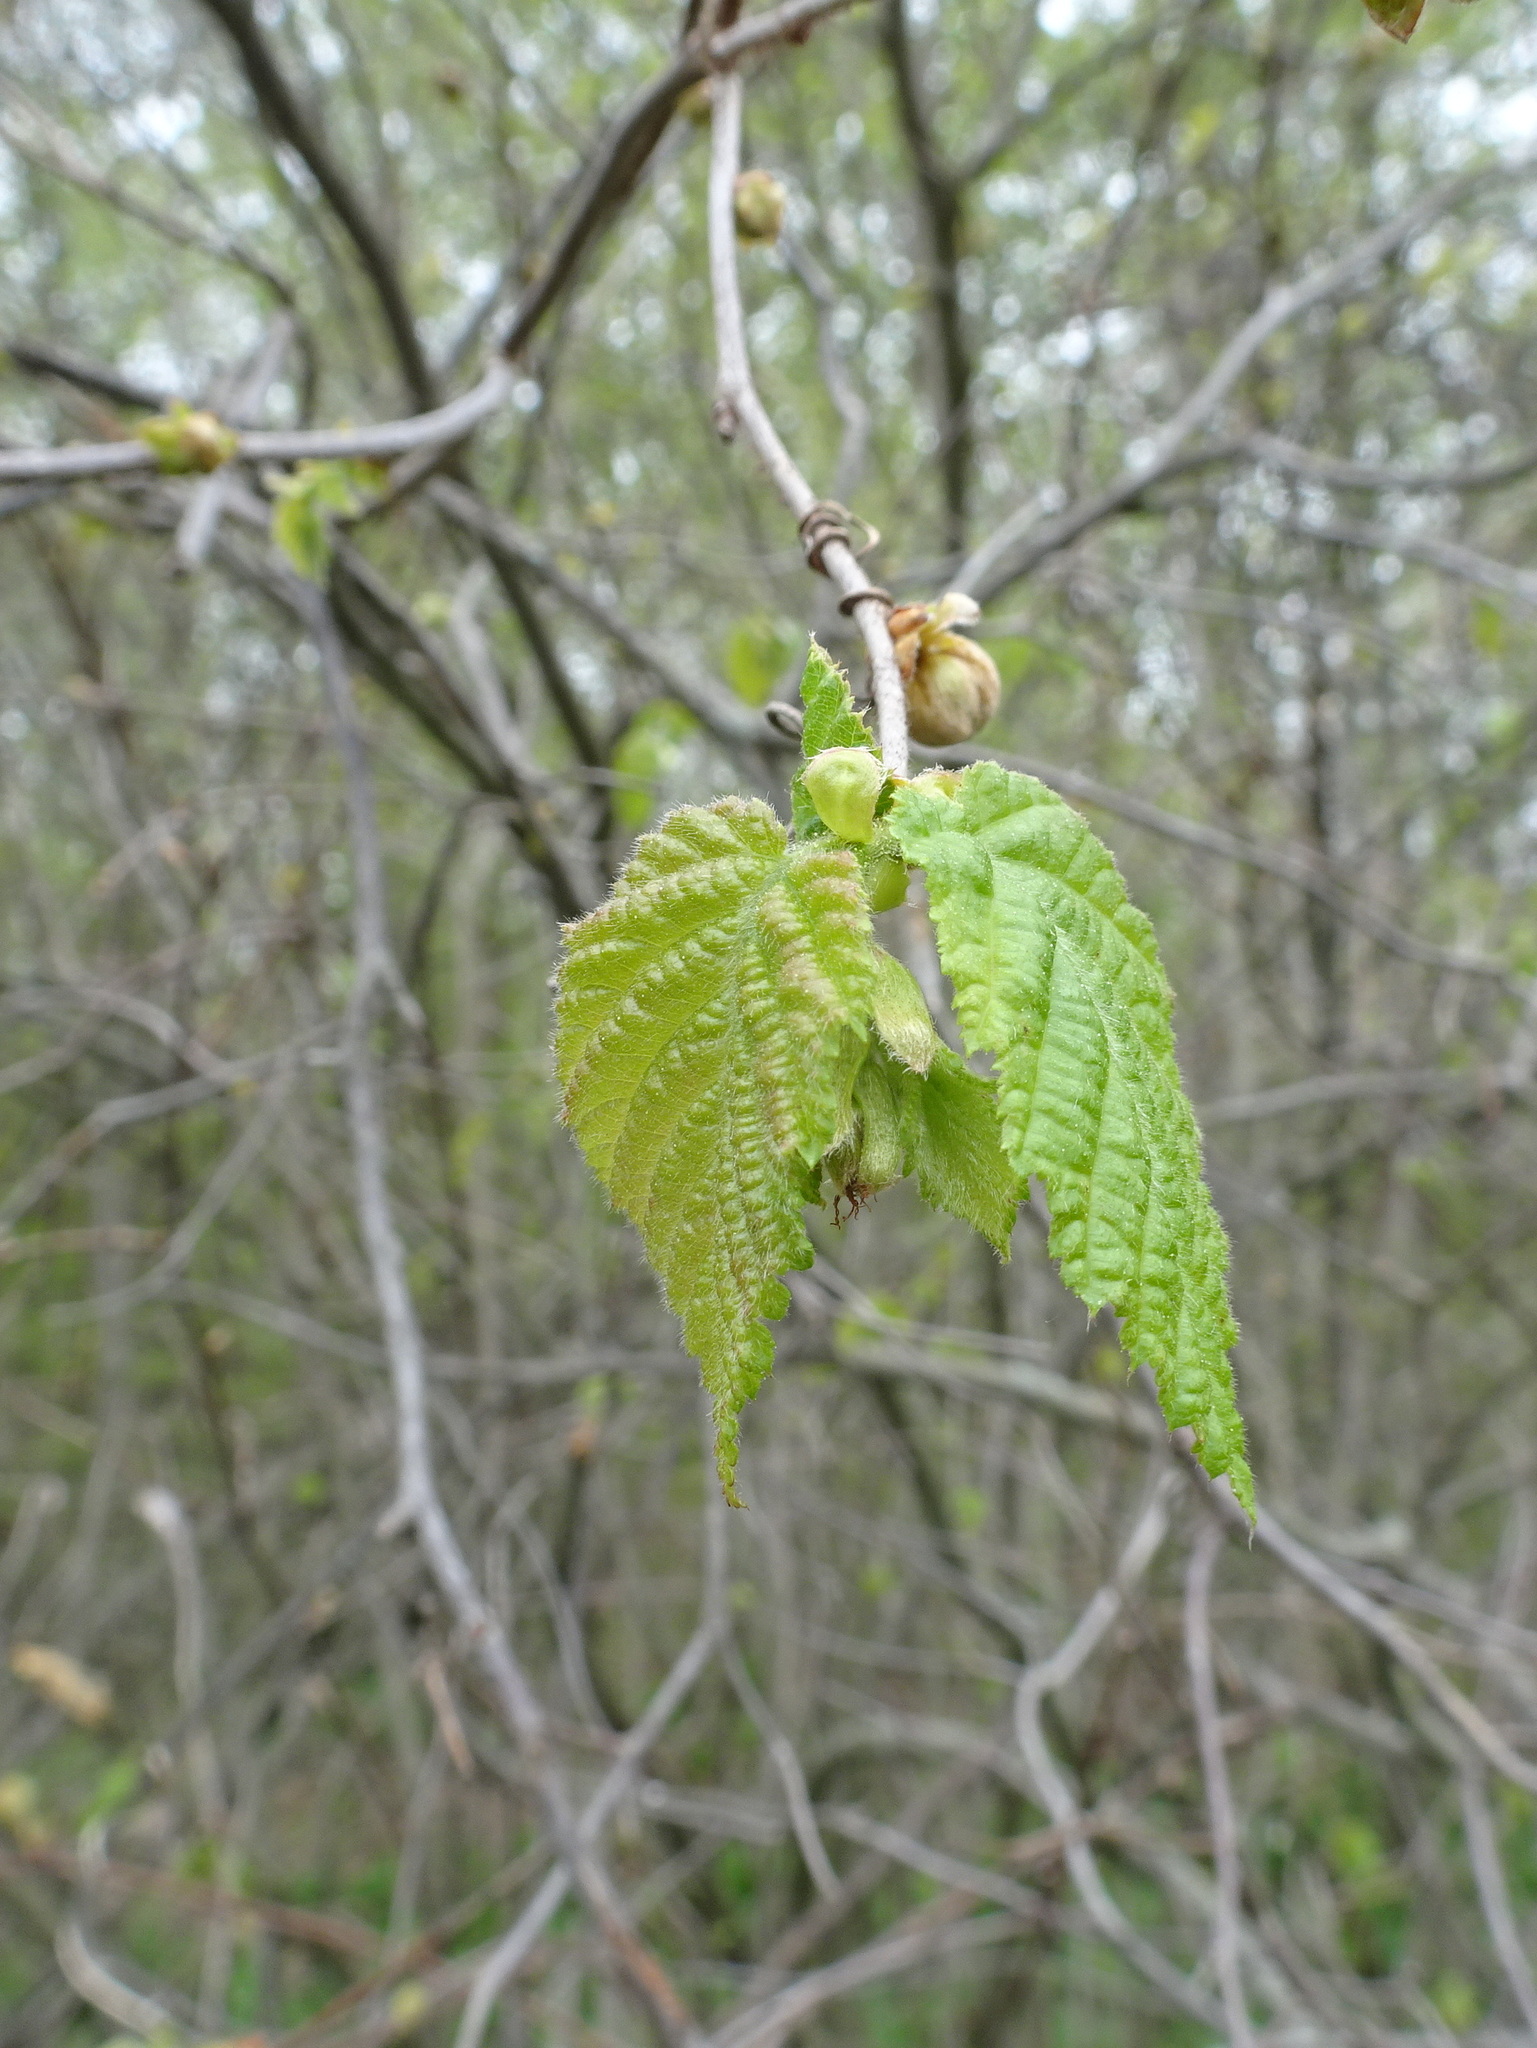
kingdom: Plantae
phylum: Tracheophyta
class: Magnoliopsida
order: Fagales
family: Betulaceae
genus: Corylus
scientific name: Corylus americana
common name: American hazel
